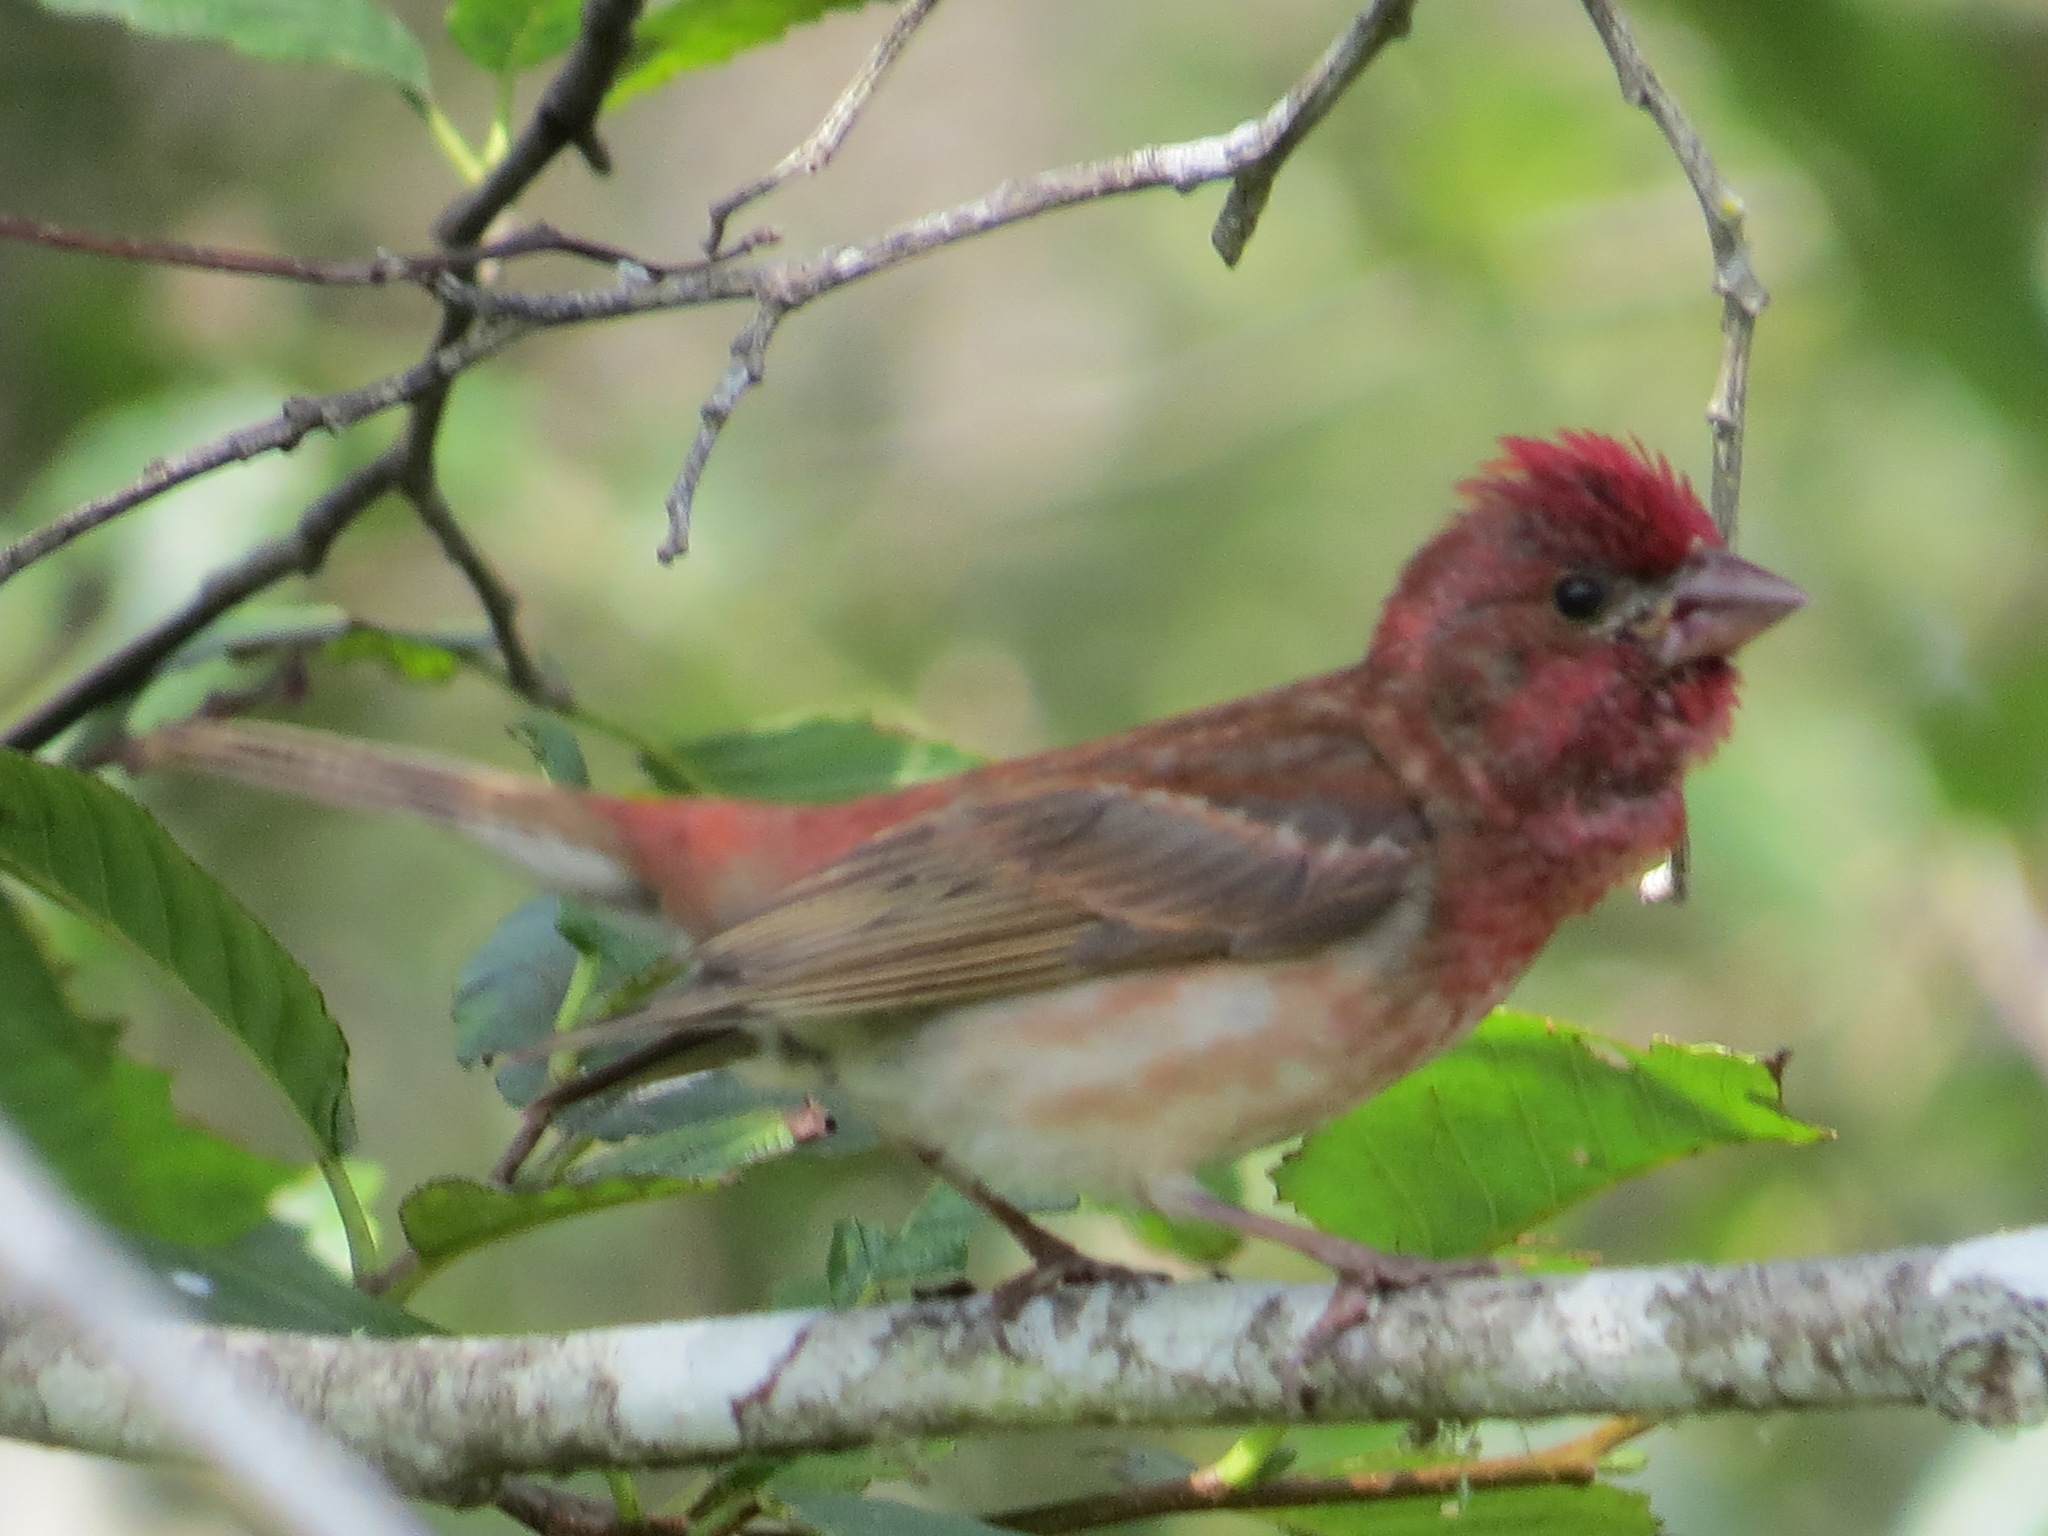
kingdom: Animalia
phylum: Chordata
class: Aves
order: Passeriformes
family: Fringillidae
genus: Haemorhous
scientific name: Haemorhous purpureus
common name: Purple finch
